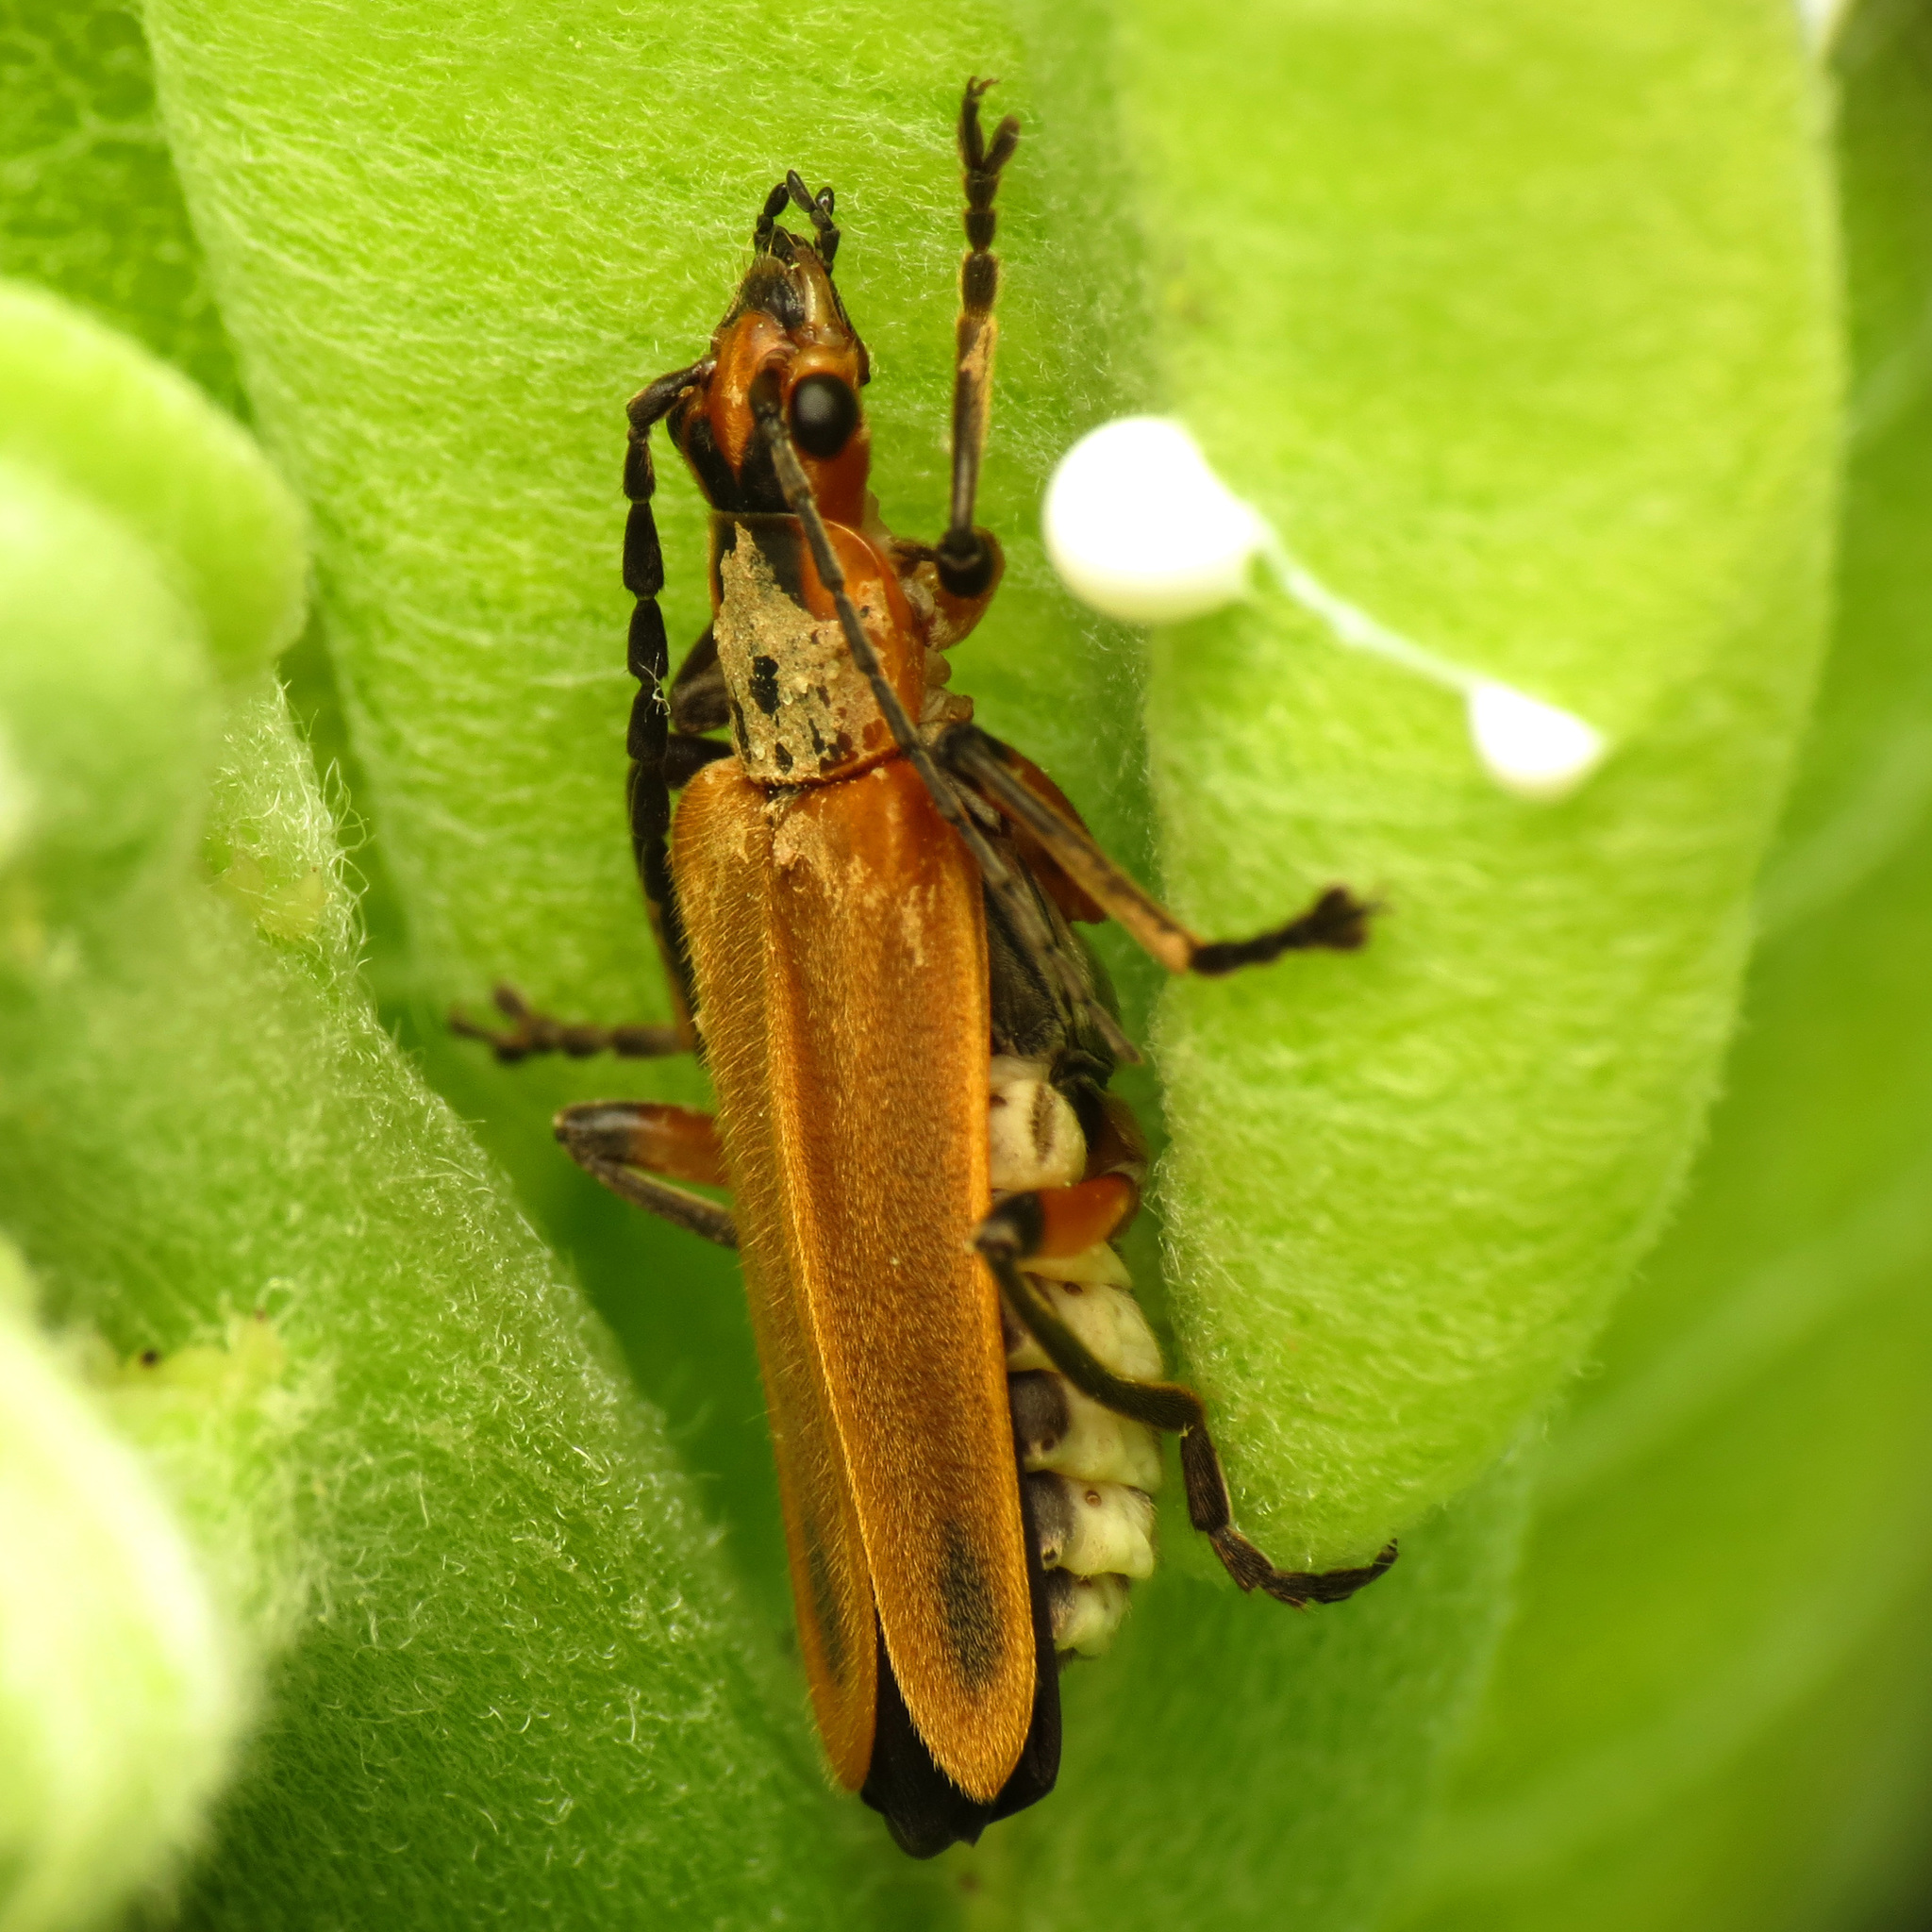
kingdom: Animalia
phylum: Arthropoda
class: Insecta
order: Coleoptera
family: Cantharidae
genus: Chauliognathus
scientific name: Chauliognathus marginatus
